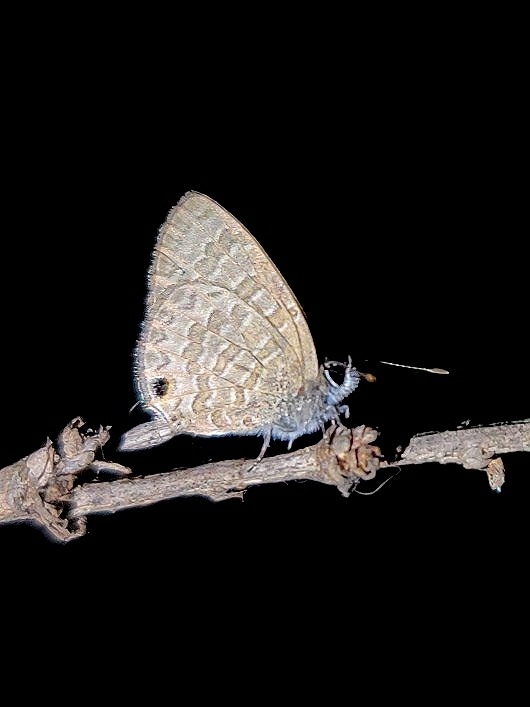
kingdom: Animalia
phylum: Arthropoda
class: Insecta
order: Lepidoptera
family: Lycaenidae
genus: Prosotas
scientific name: Prosotas nora
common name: Common line blue
